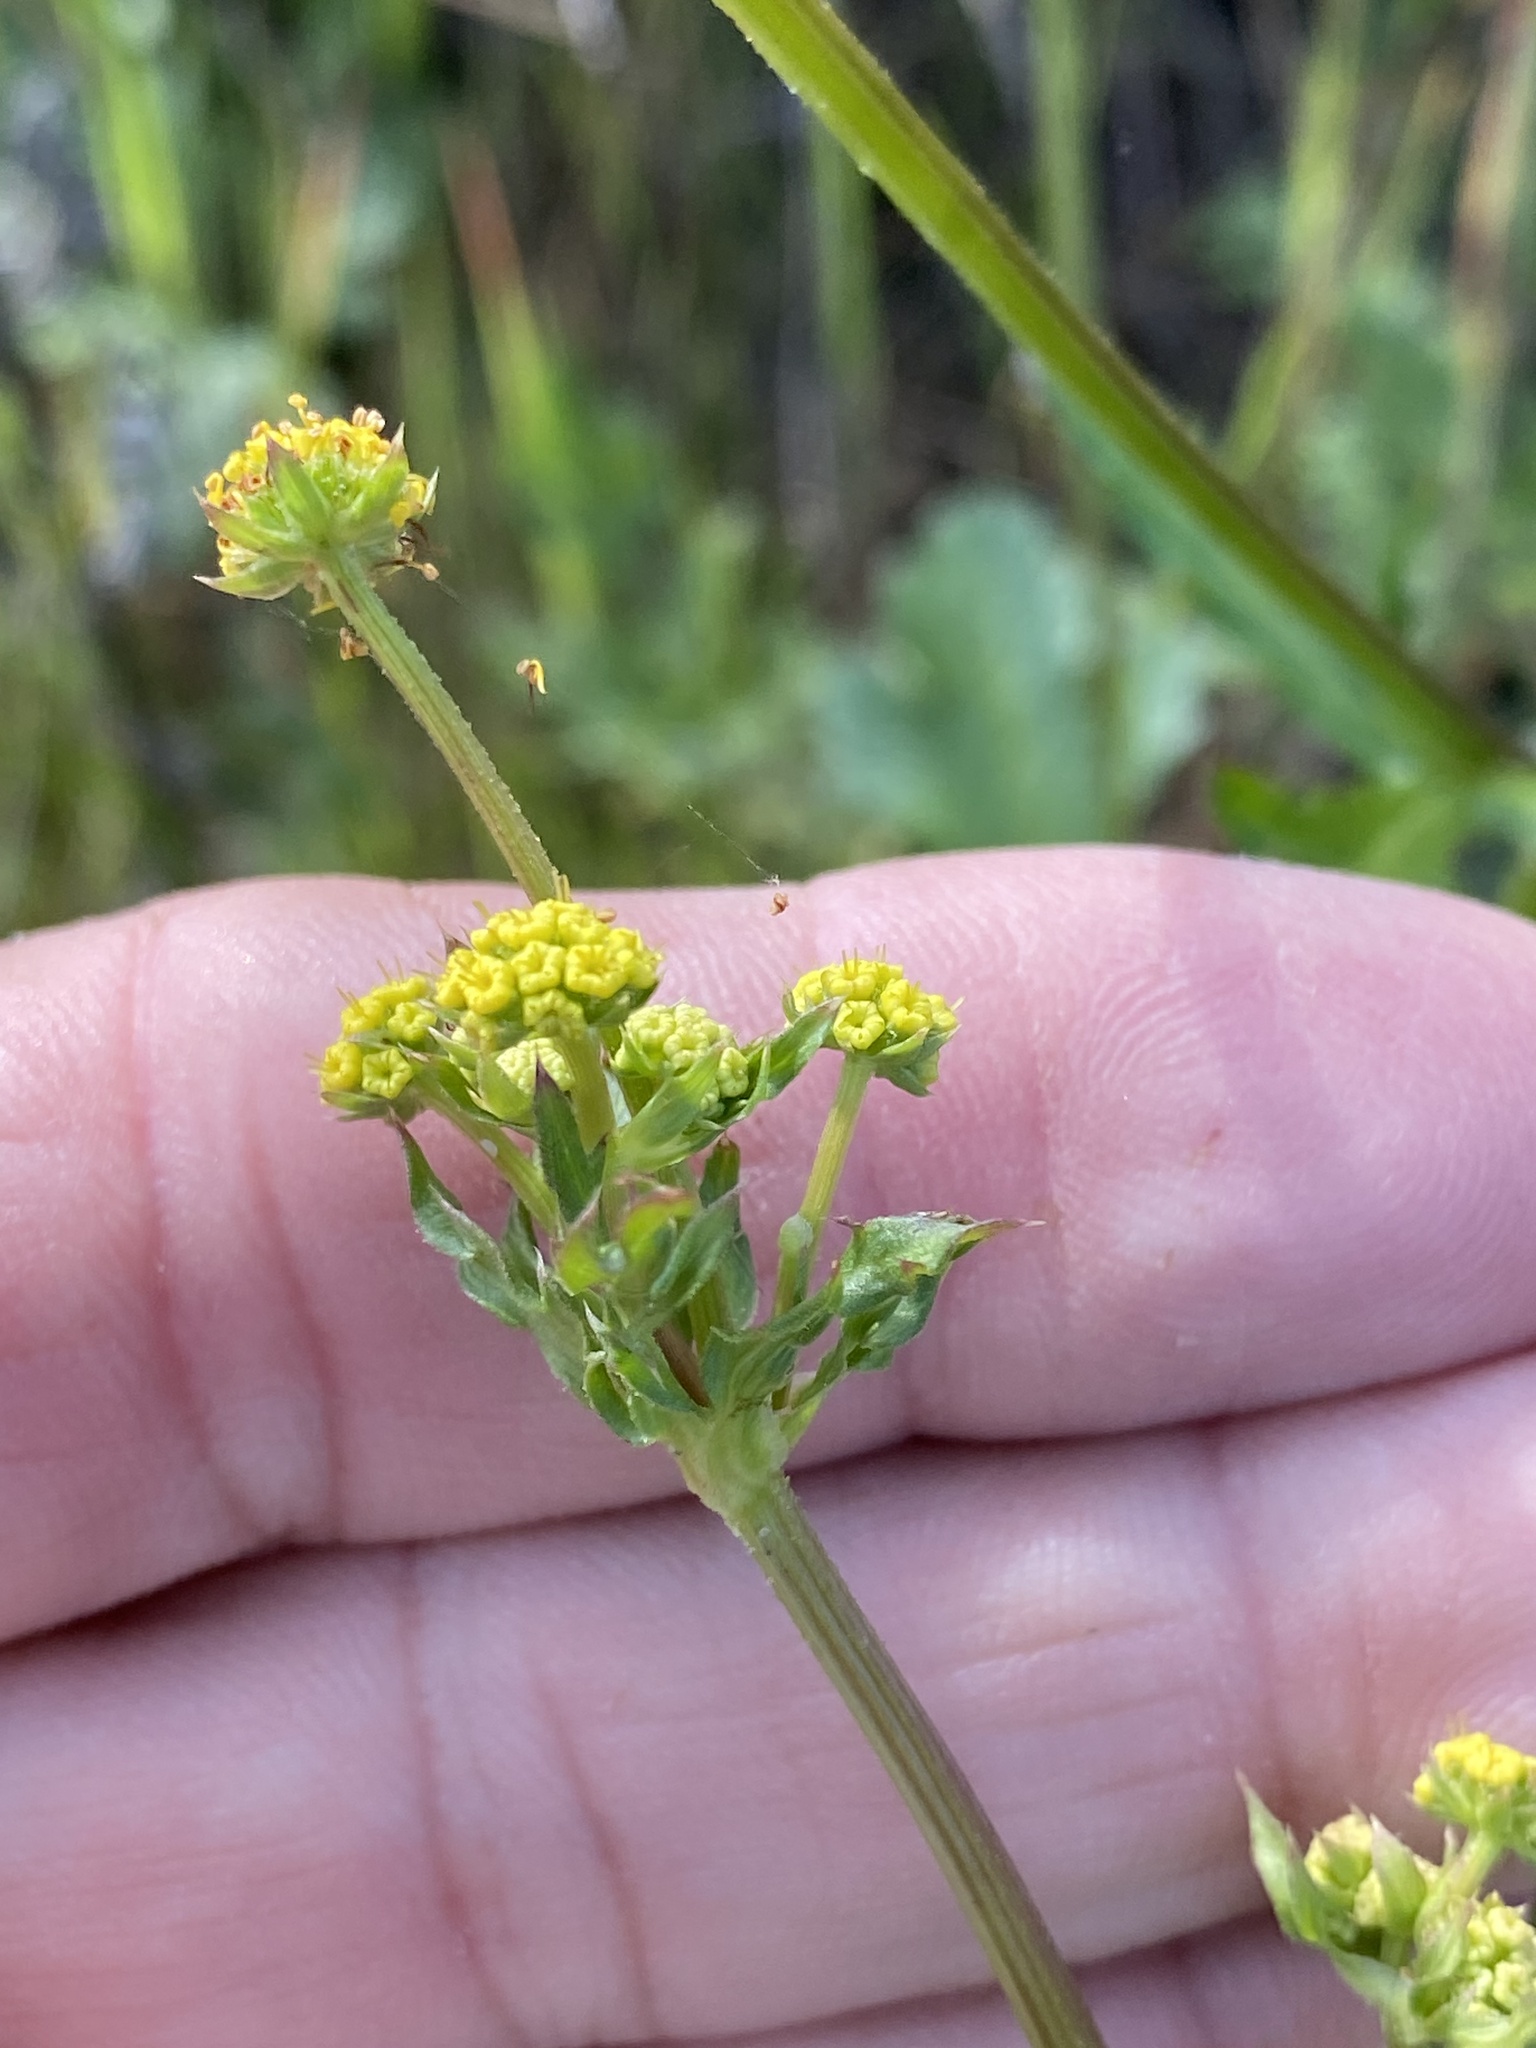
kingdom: Plantae
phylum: Tracheophyta
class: Magnoliopsida
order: Apiales
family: Apiaceae
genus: Sanicula
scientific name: Sanicula crassicaulis
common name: Western snakeroot
